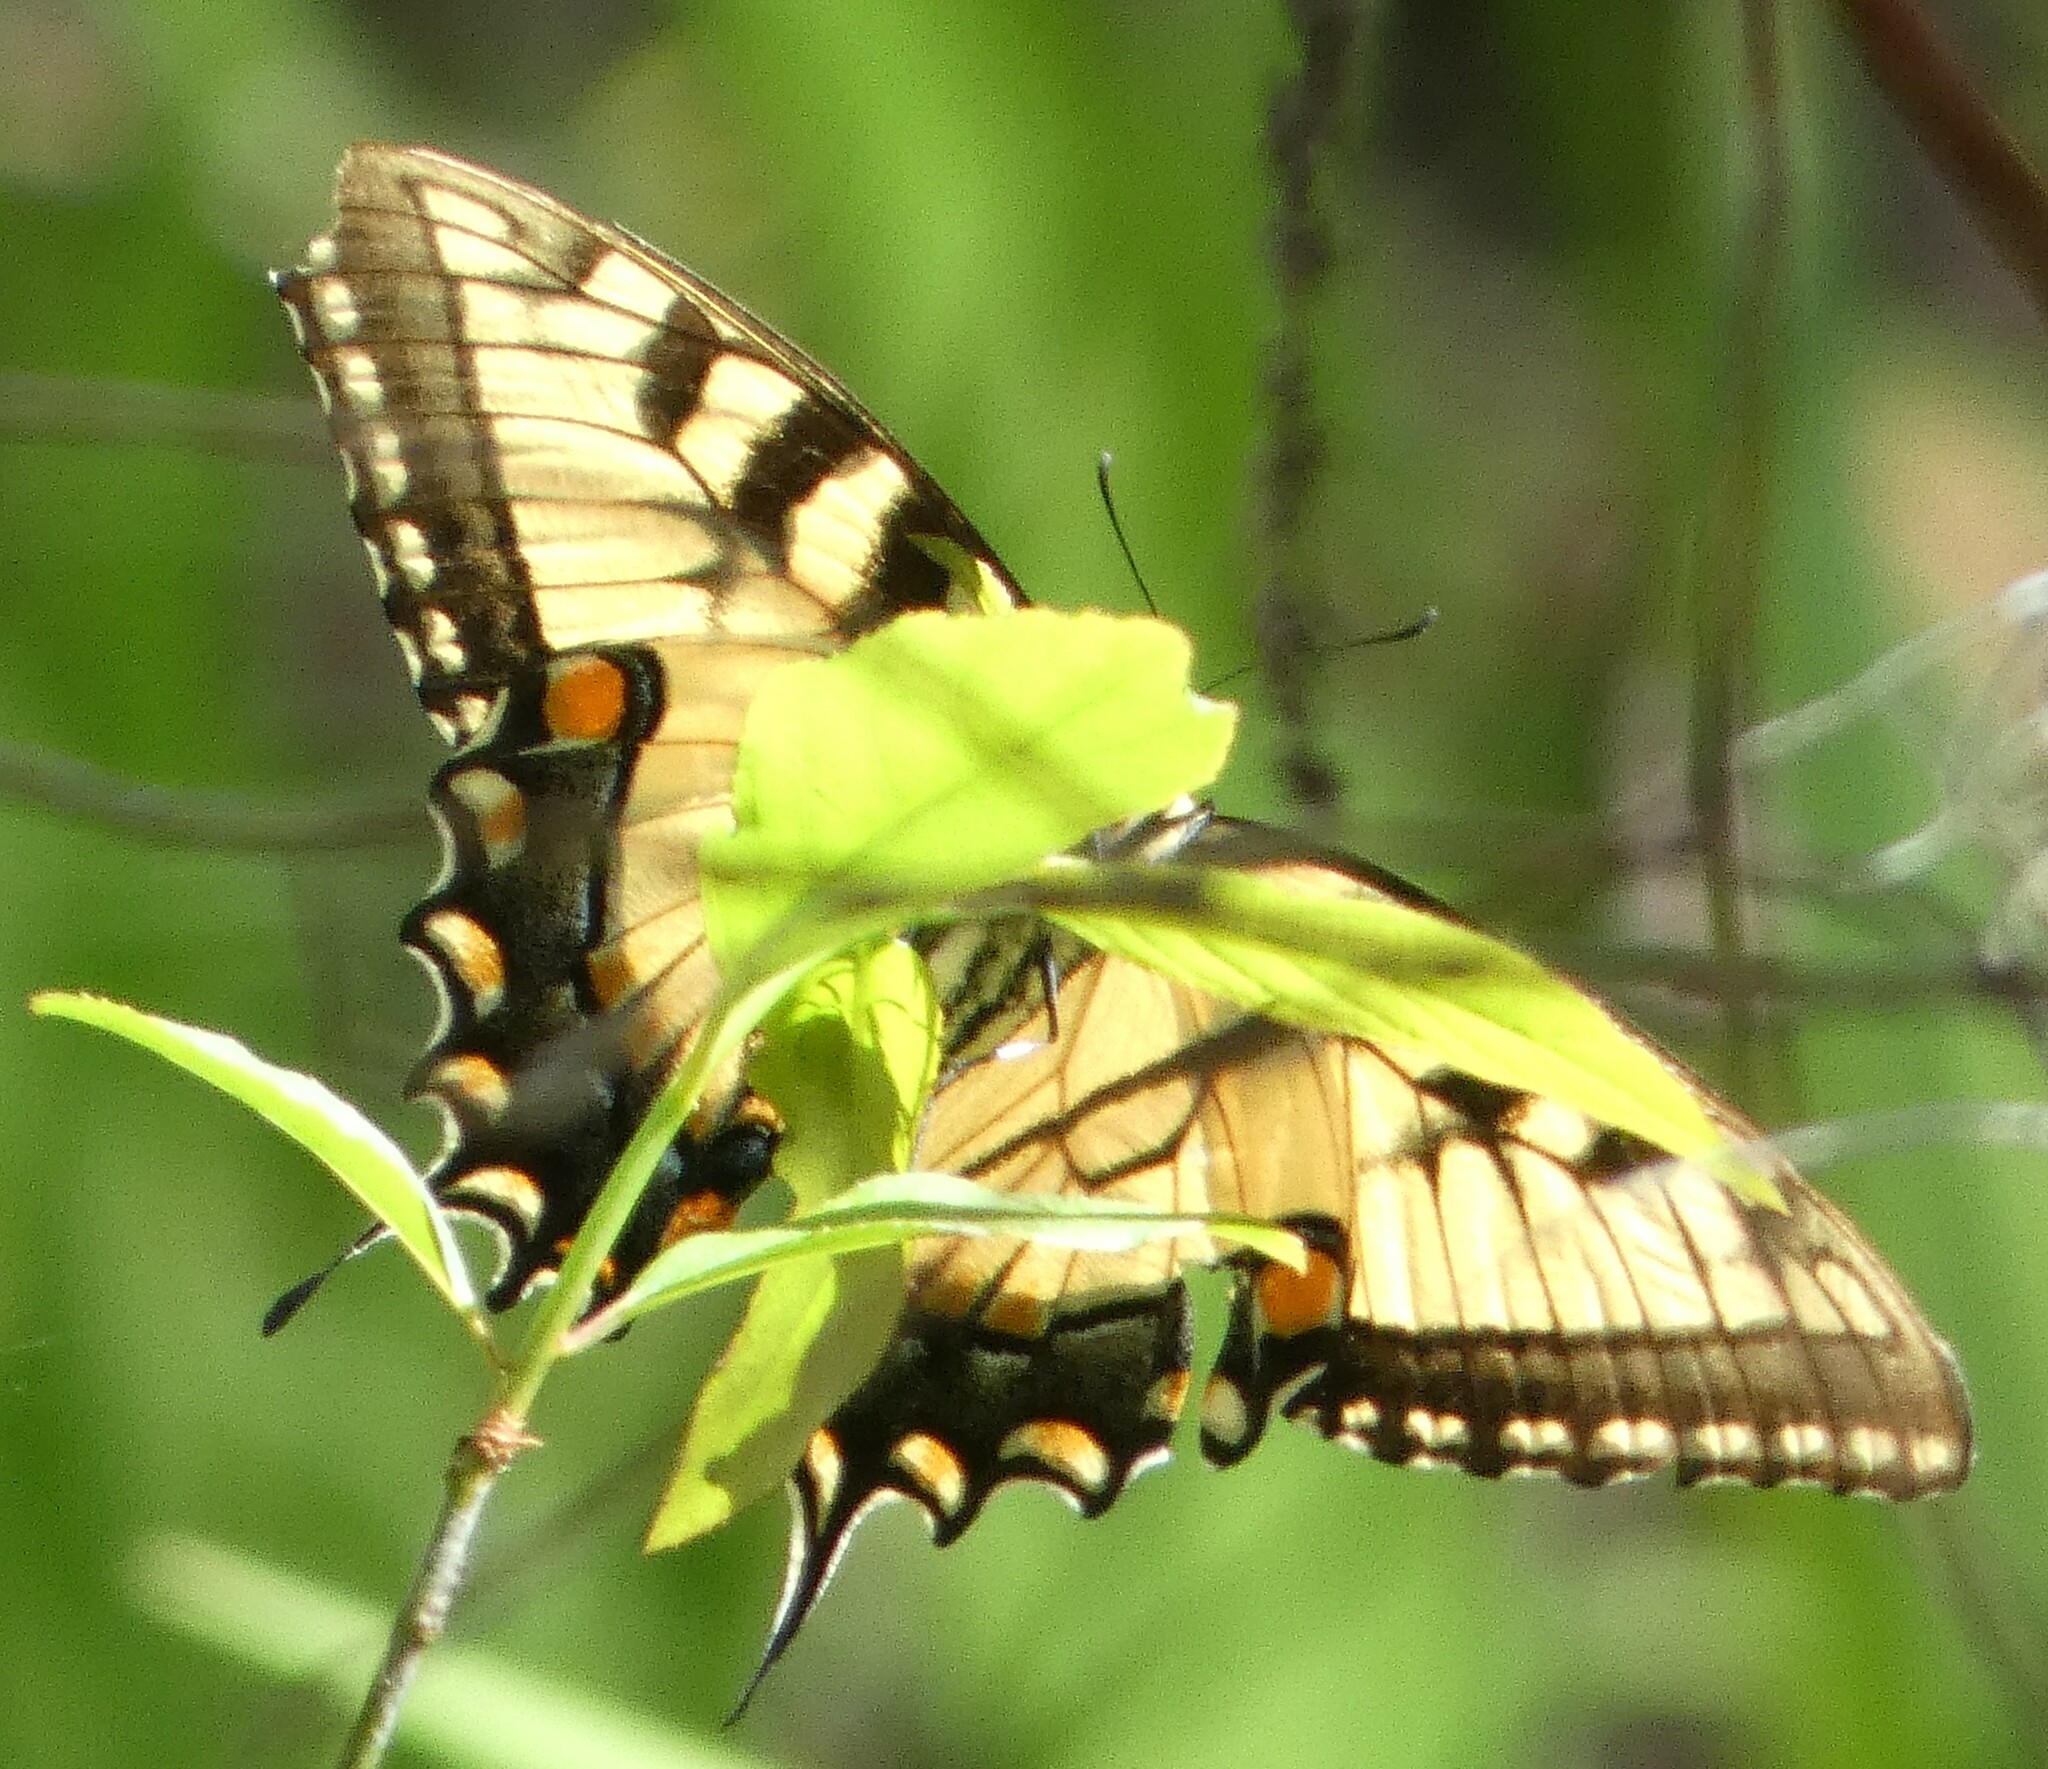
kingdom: Animalia
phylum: Arthropoda
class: Insecta
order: Lepidoptera
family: Papilionidae
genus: Papilio
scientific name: Papilio glaucus
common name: Tiger swallowtail
